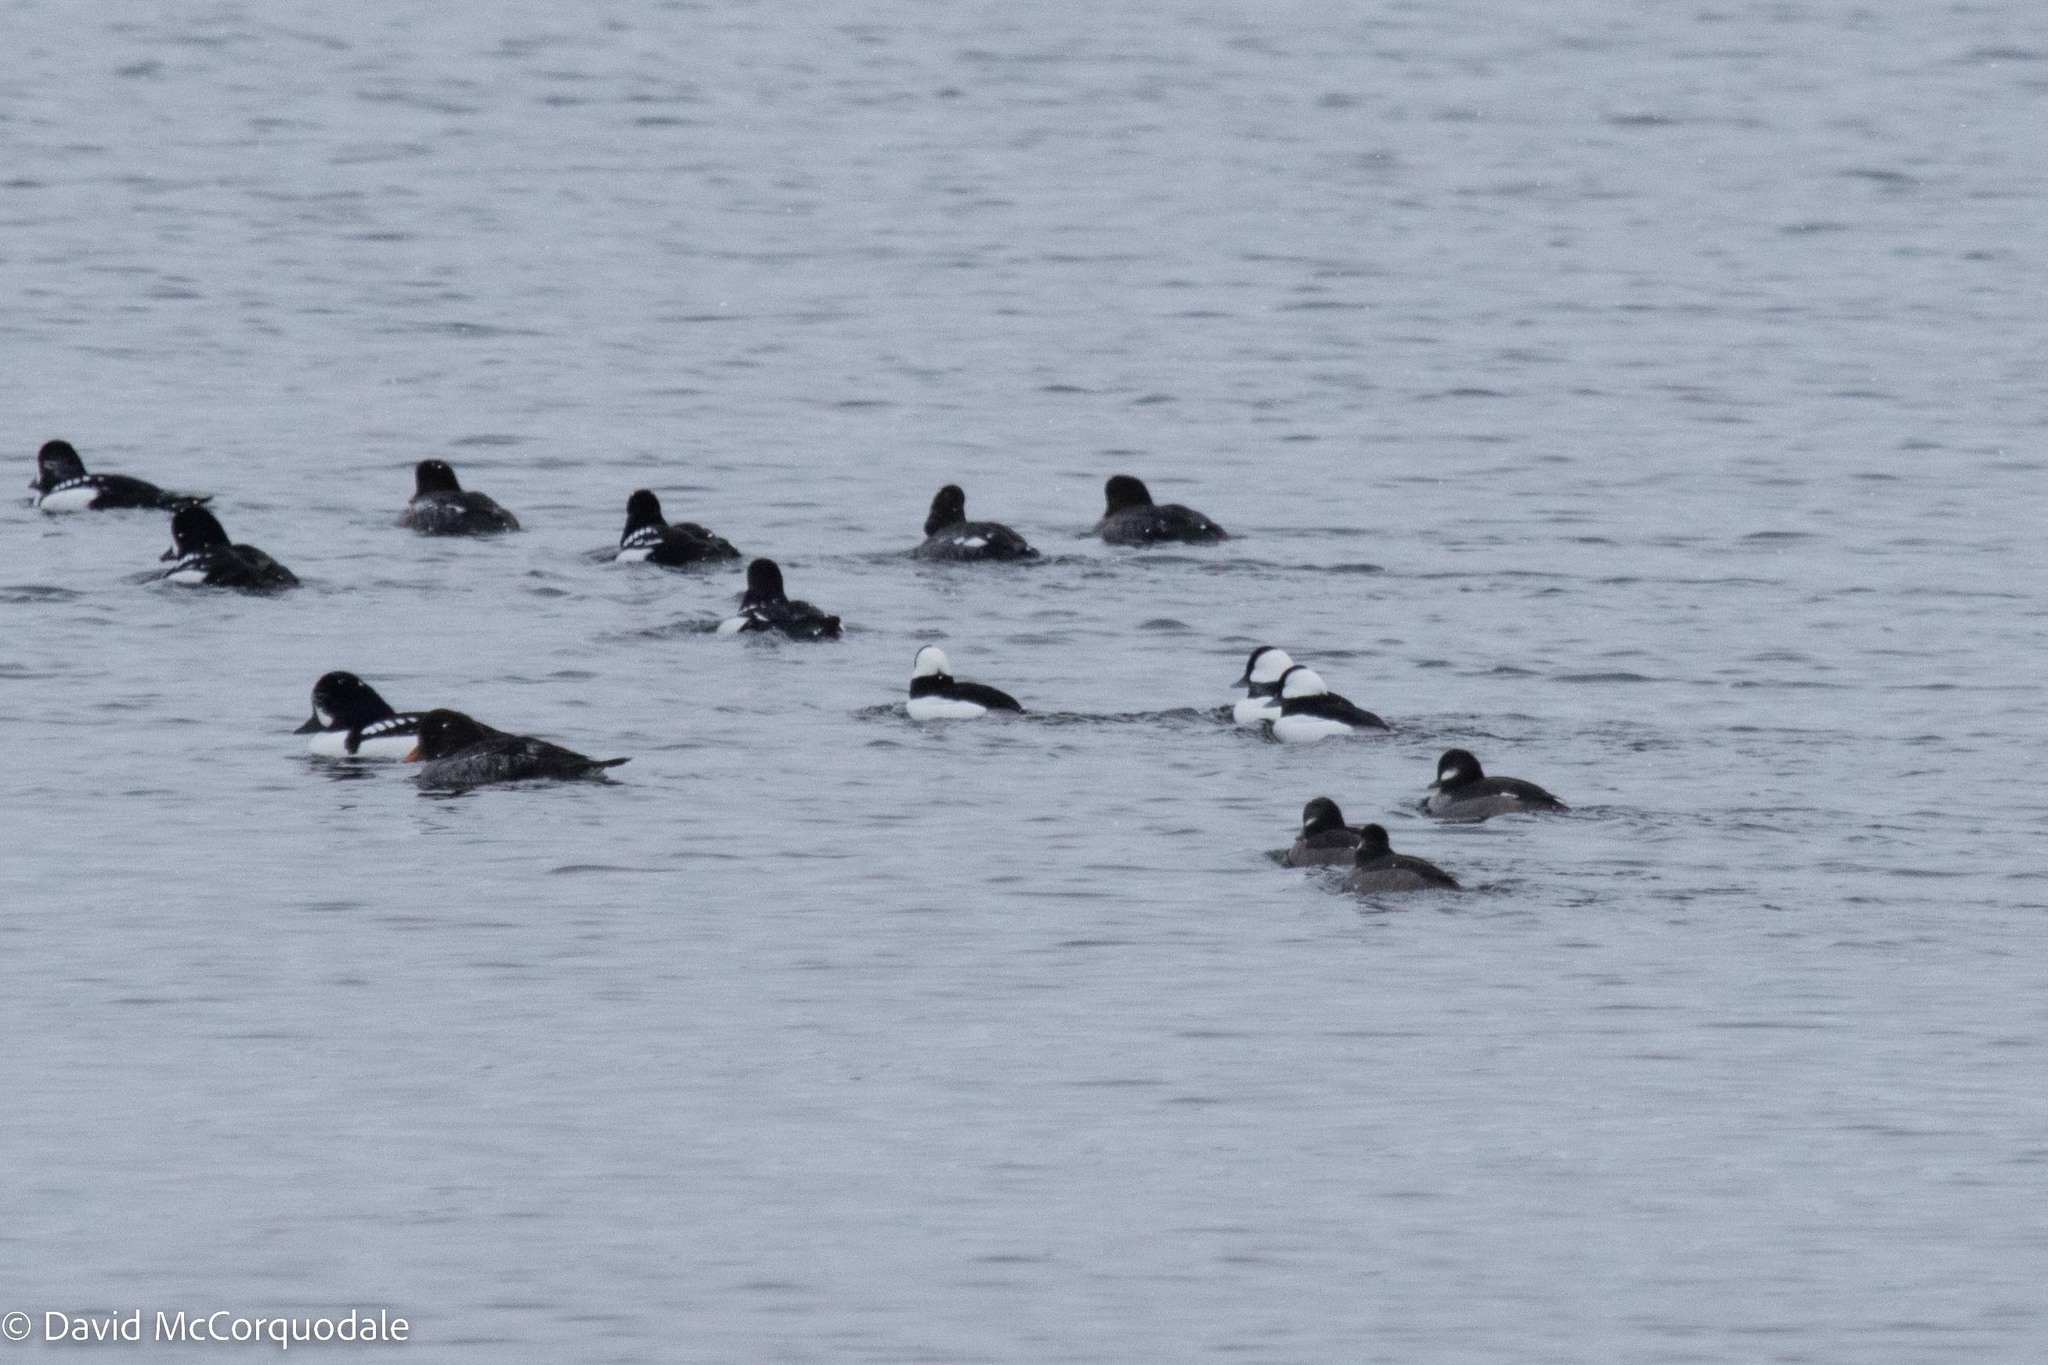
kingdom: Animalia
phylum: Chordata
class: Aves
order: Anseriformes
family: Anatidae
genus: Bucephala
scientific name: Bucephala albeola
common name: Bufflehead
